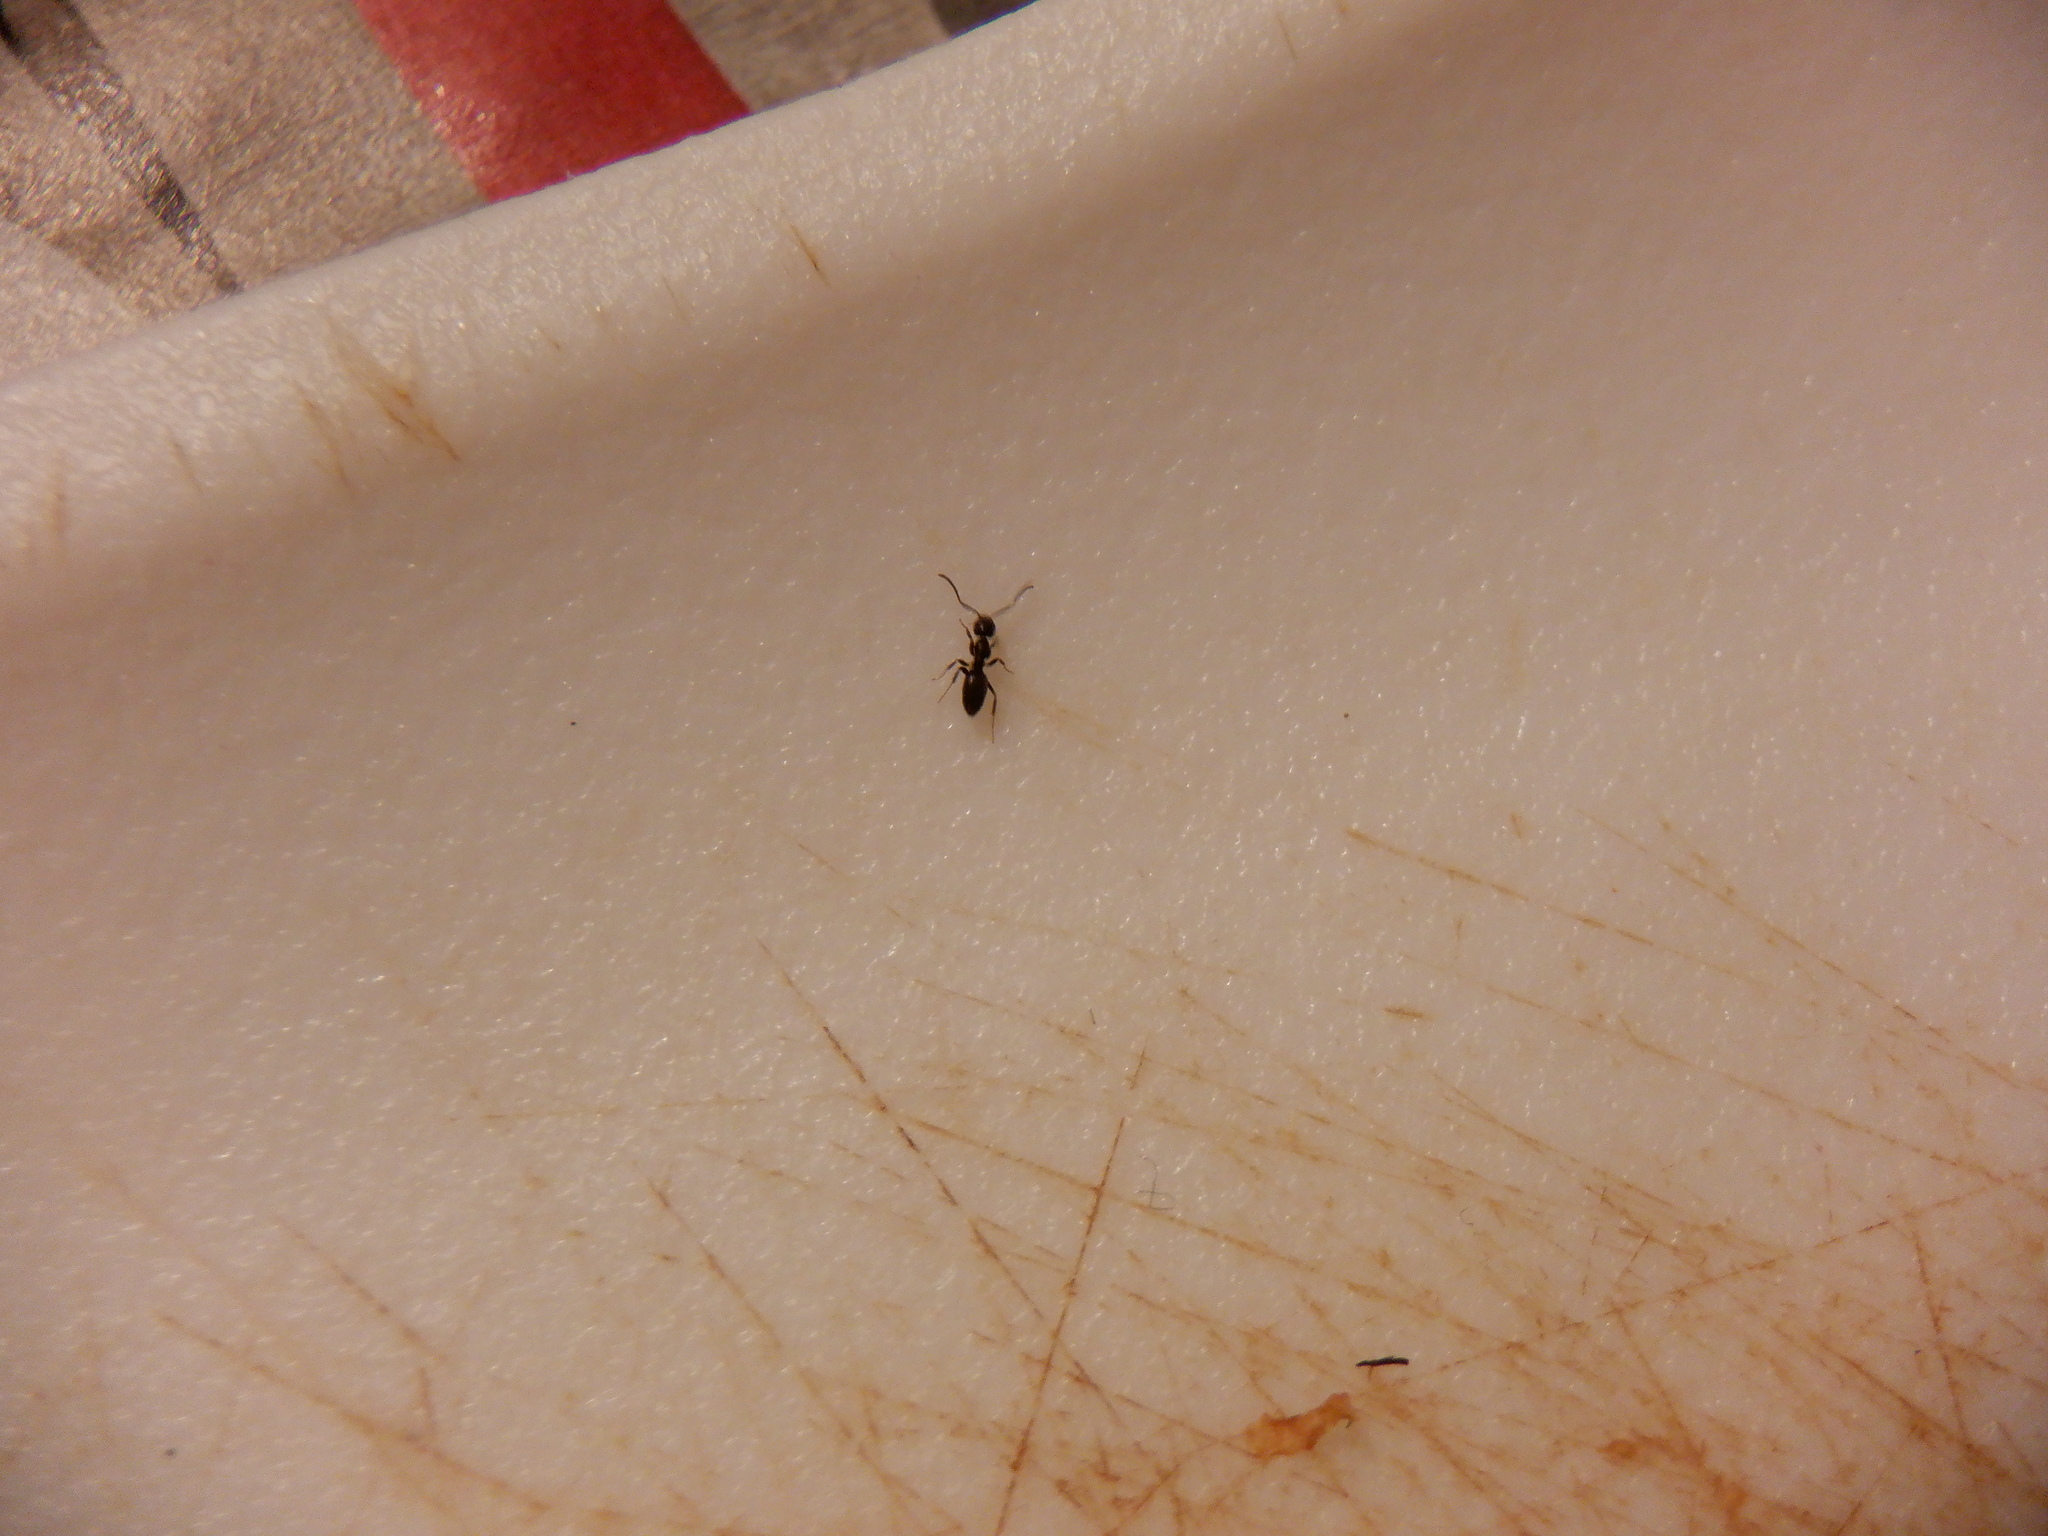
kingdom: Animalia
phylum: Arthropoda
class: Insecta
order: Hymenoptera
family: Formicidae
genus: Tapinoma
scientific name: Tapinoma sessile
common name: Odorous house ant
